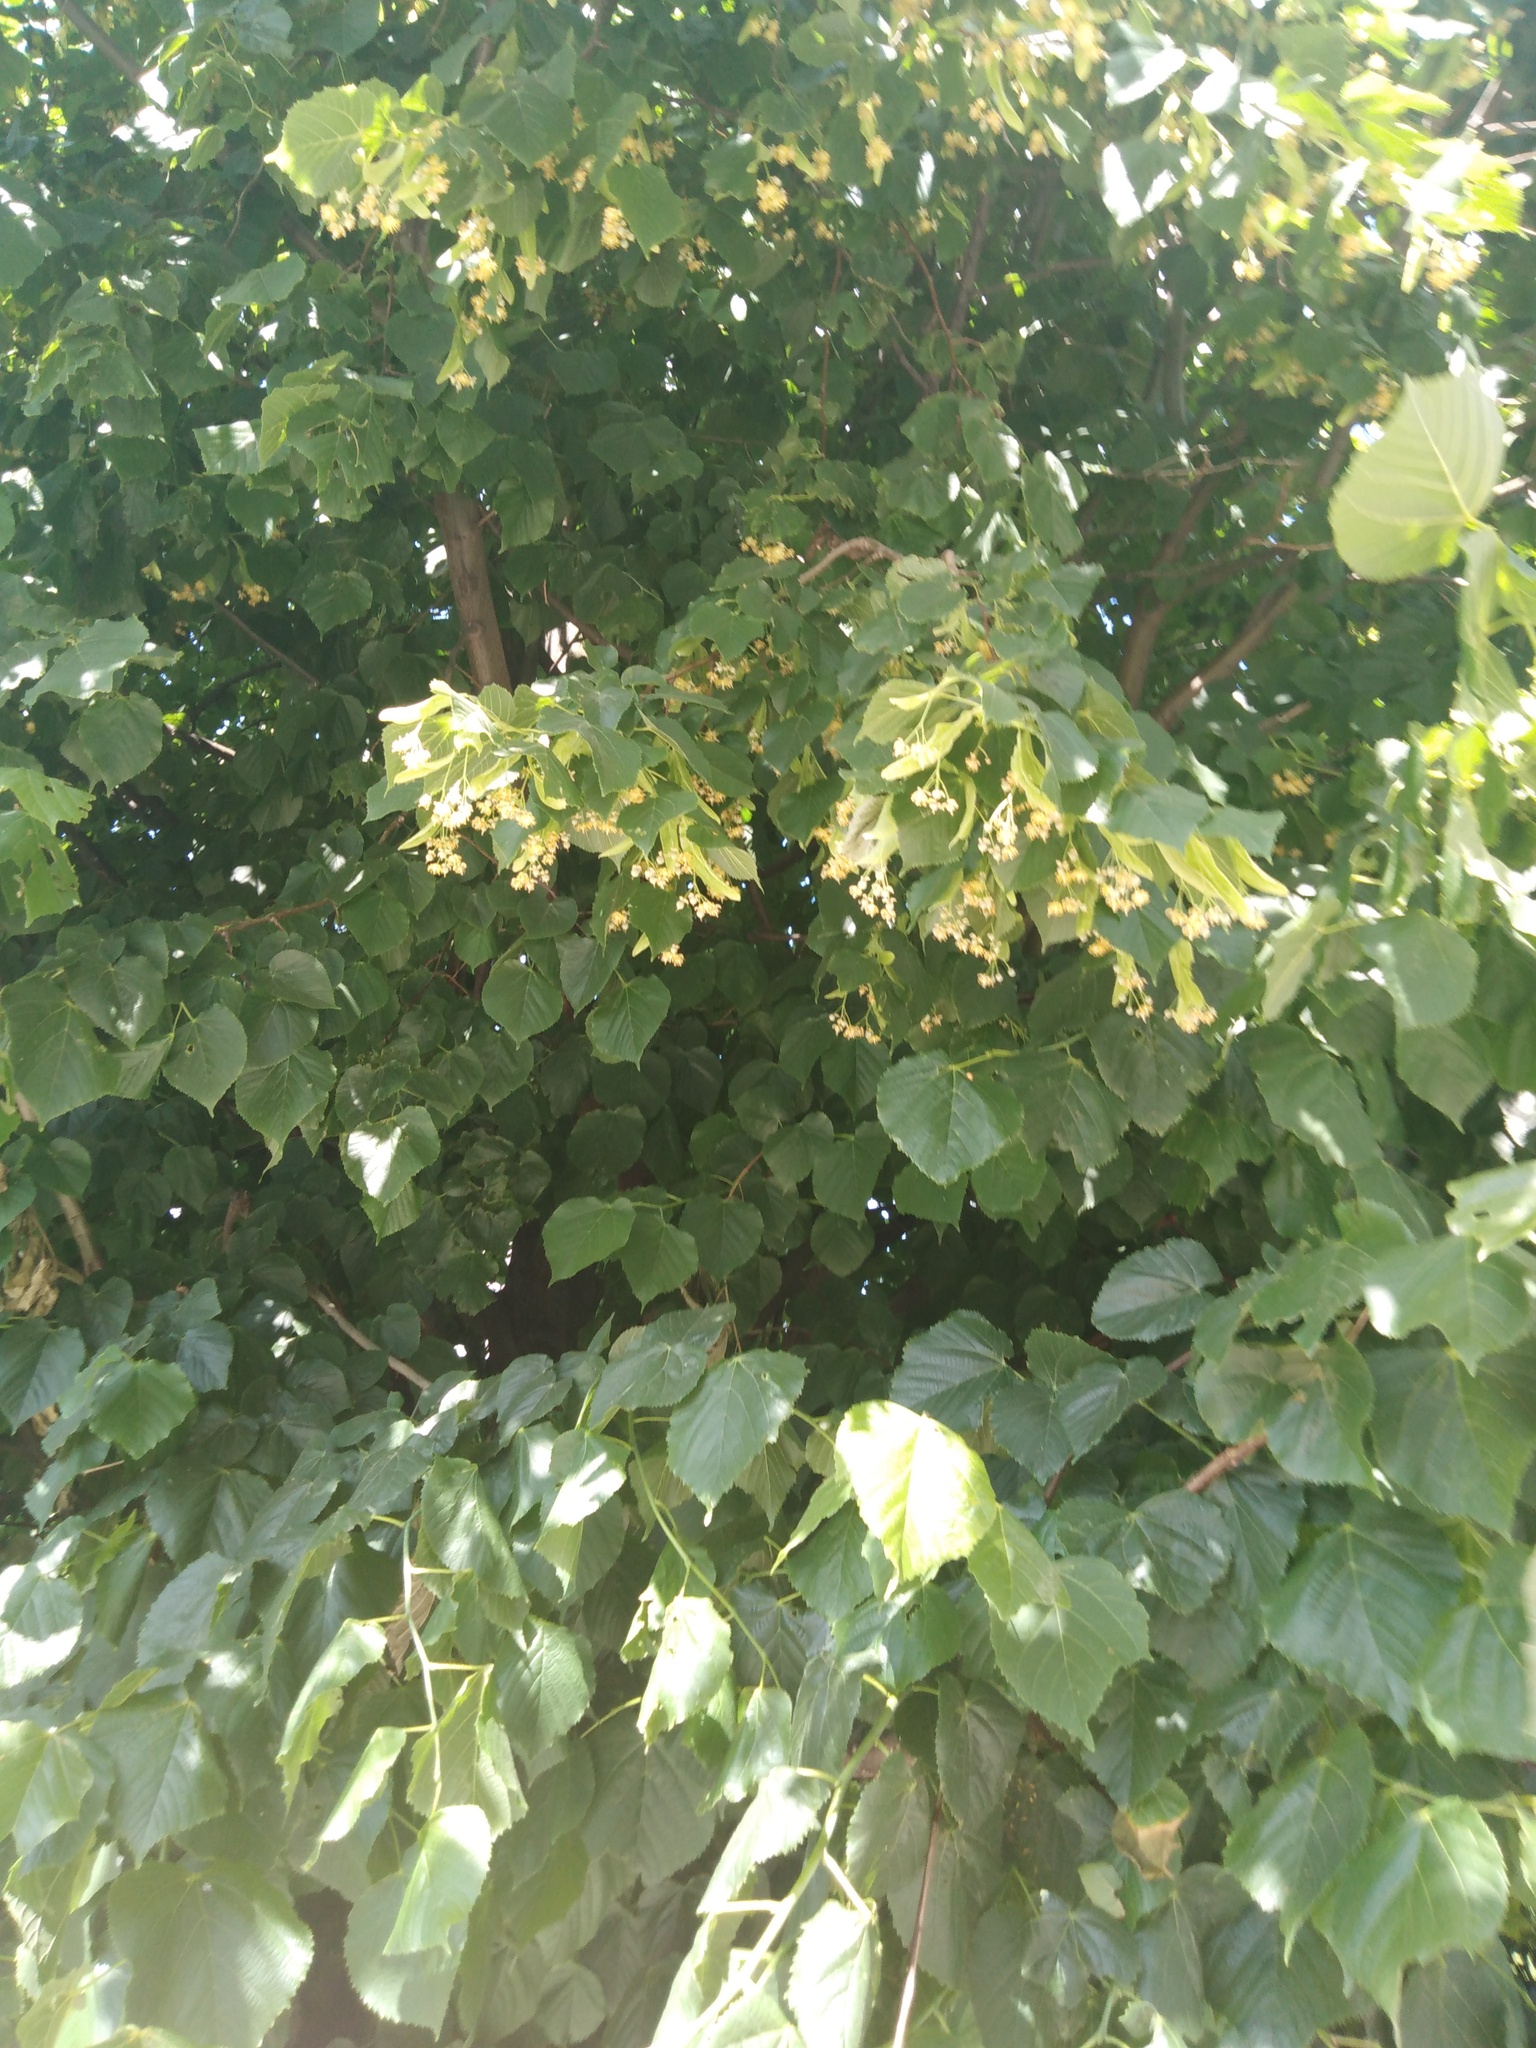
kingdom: Plantae
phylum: Tracheophyta
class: Magnoliopsida
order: Malvales
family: Malvaceae
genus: Tilia
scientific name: Tilia platyphyllos
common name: Large-leaved lime
